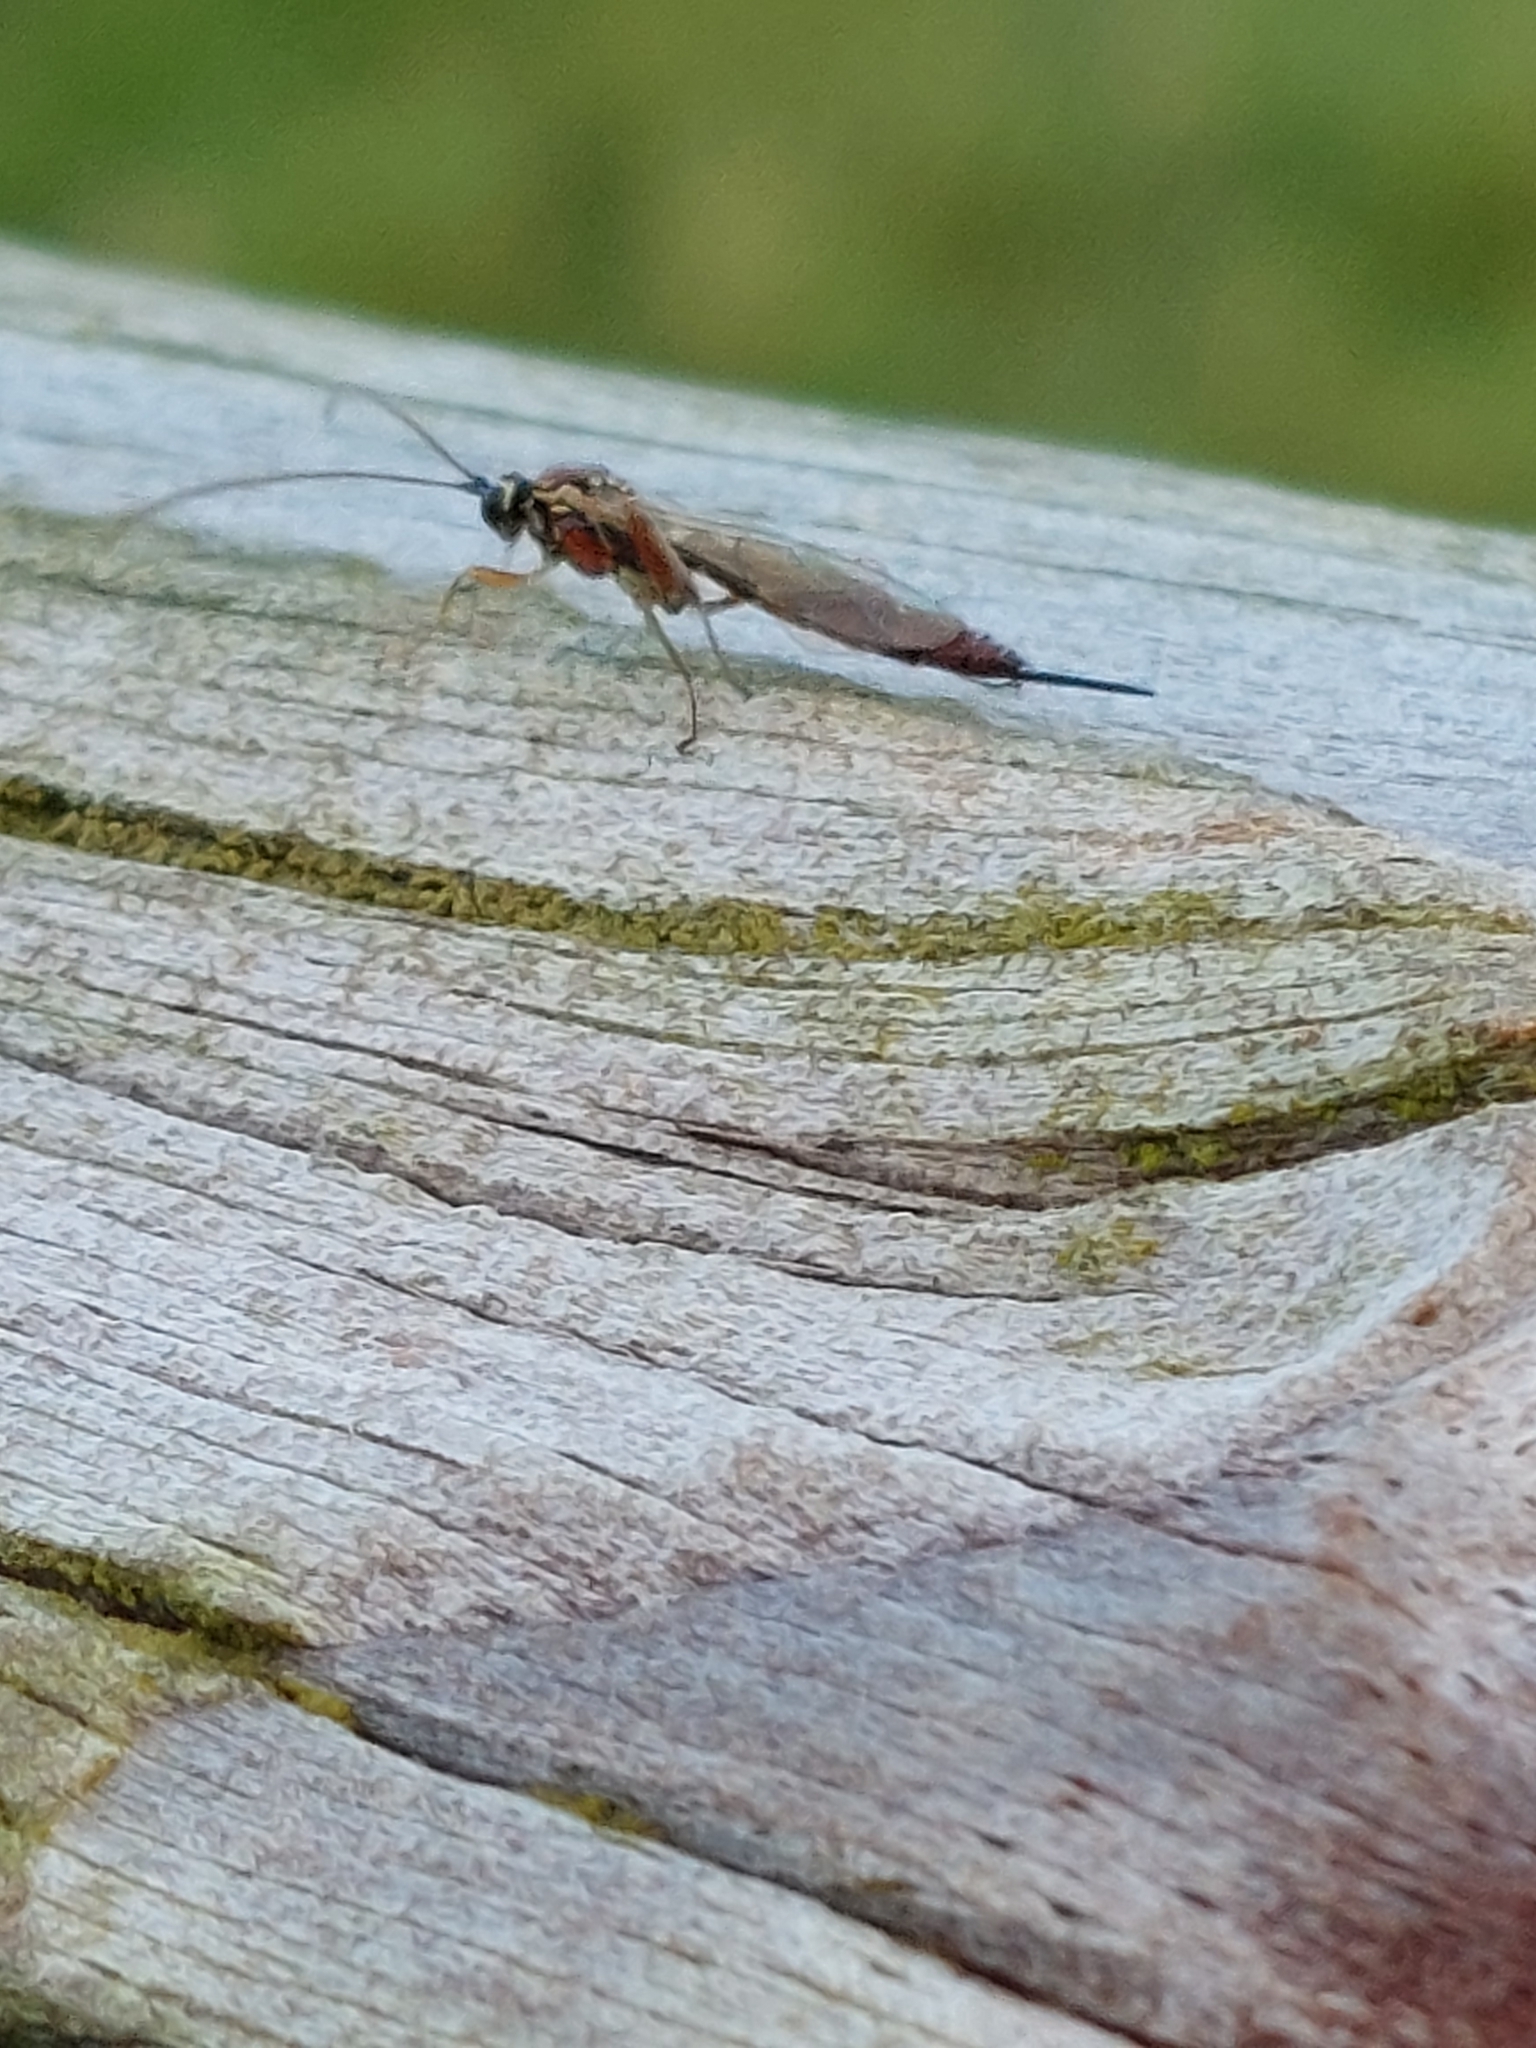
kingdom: Animalia
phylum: Arthropoda
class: Insecta
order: Hymenoptera
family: Ichneumonidae
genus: Tromatobia
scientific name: Tromatobia lineatoria
